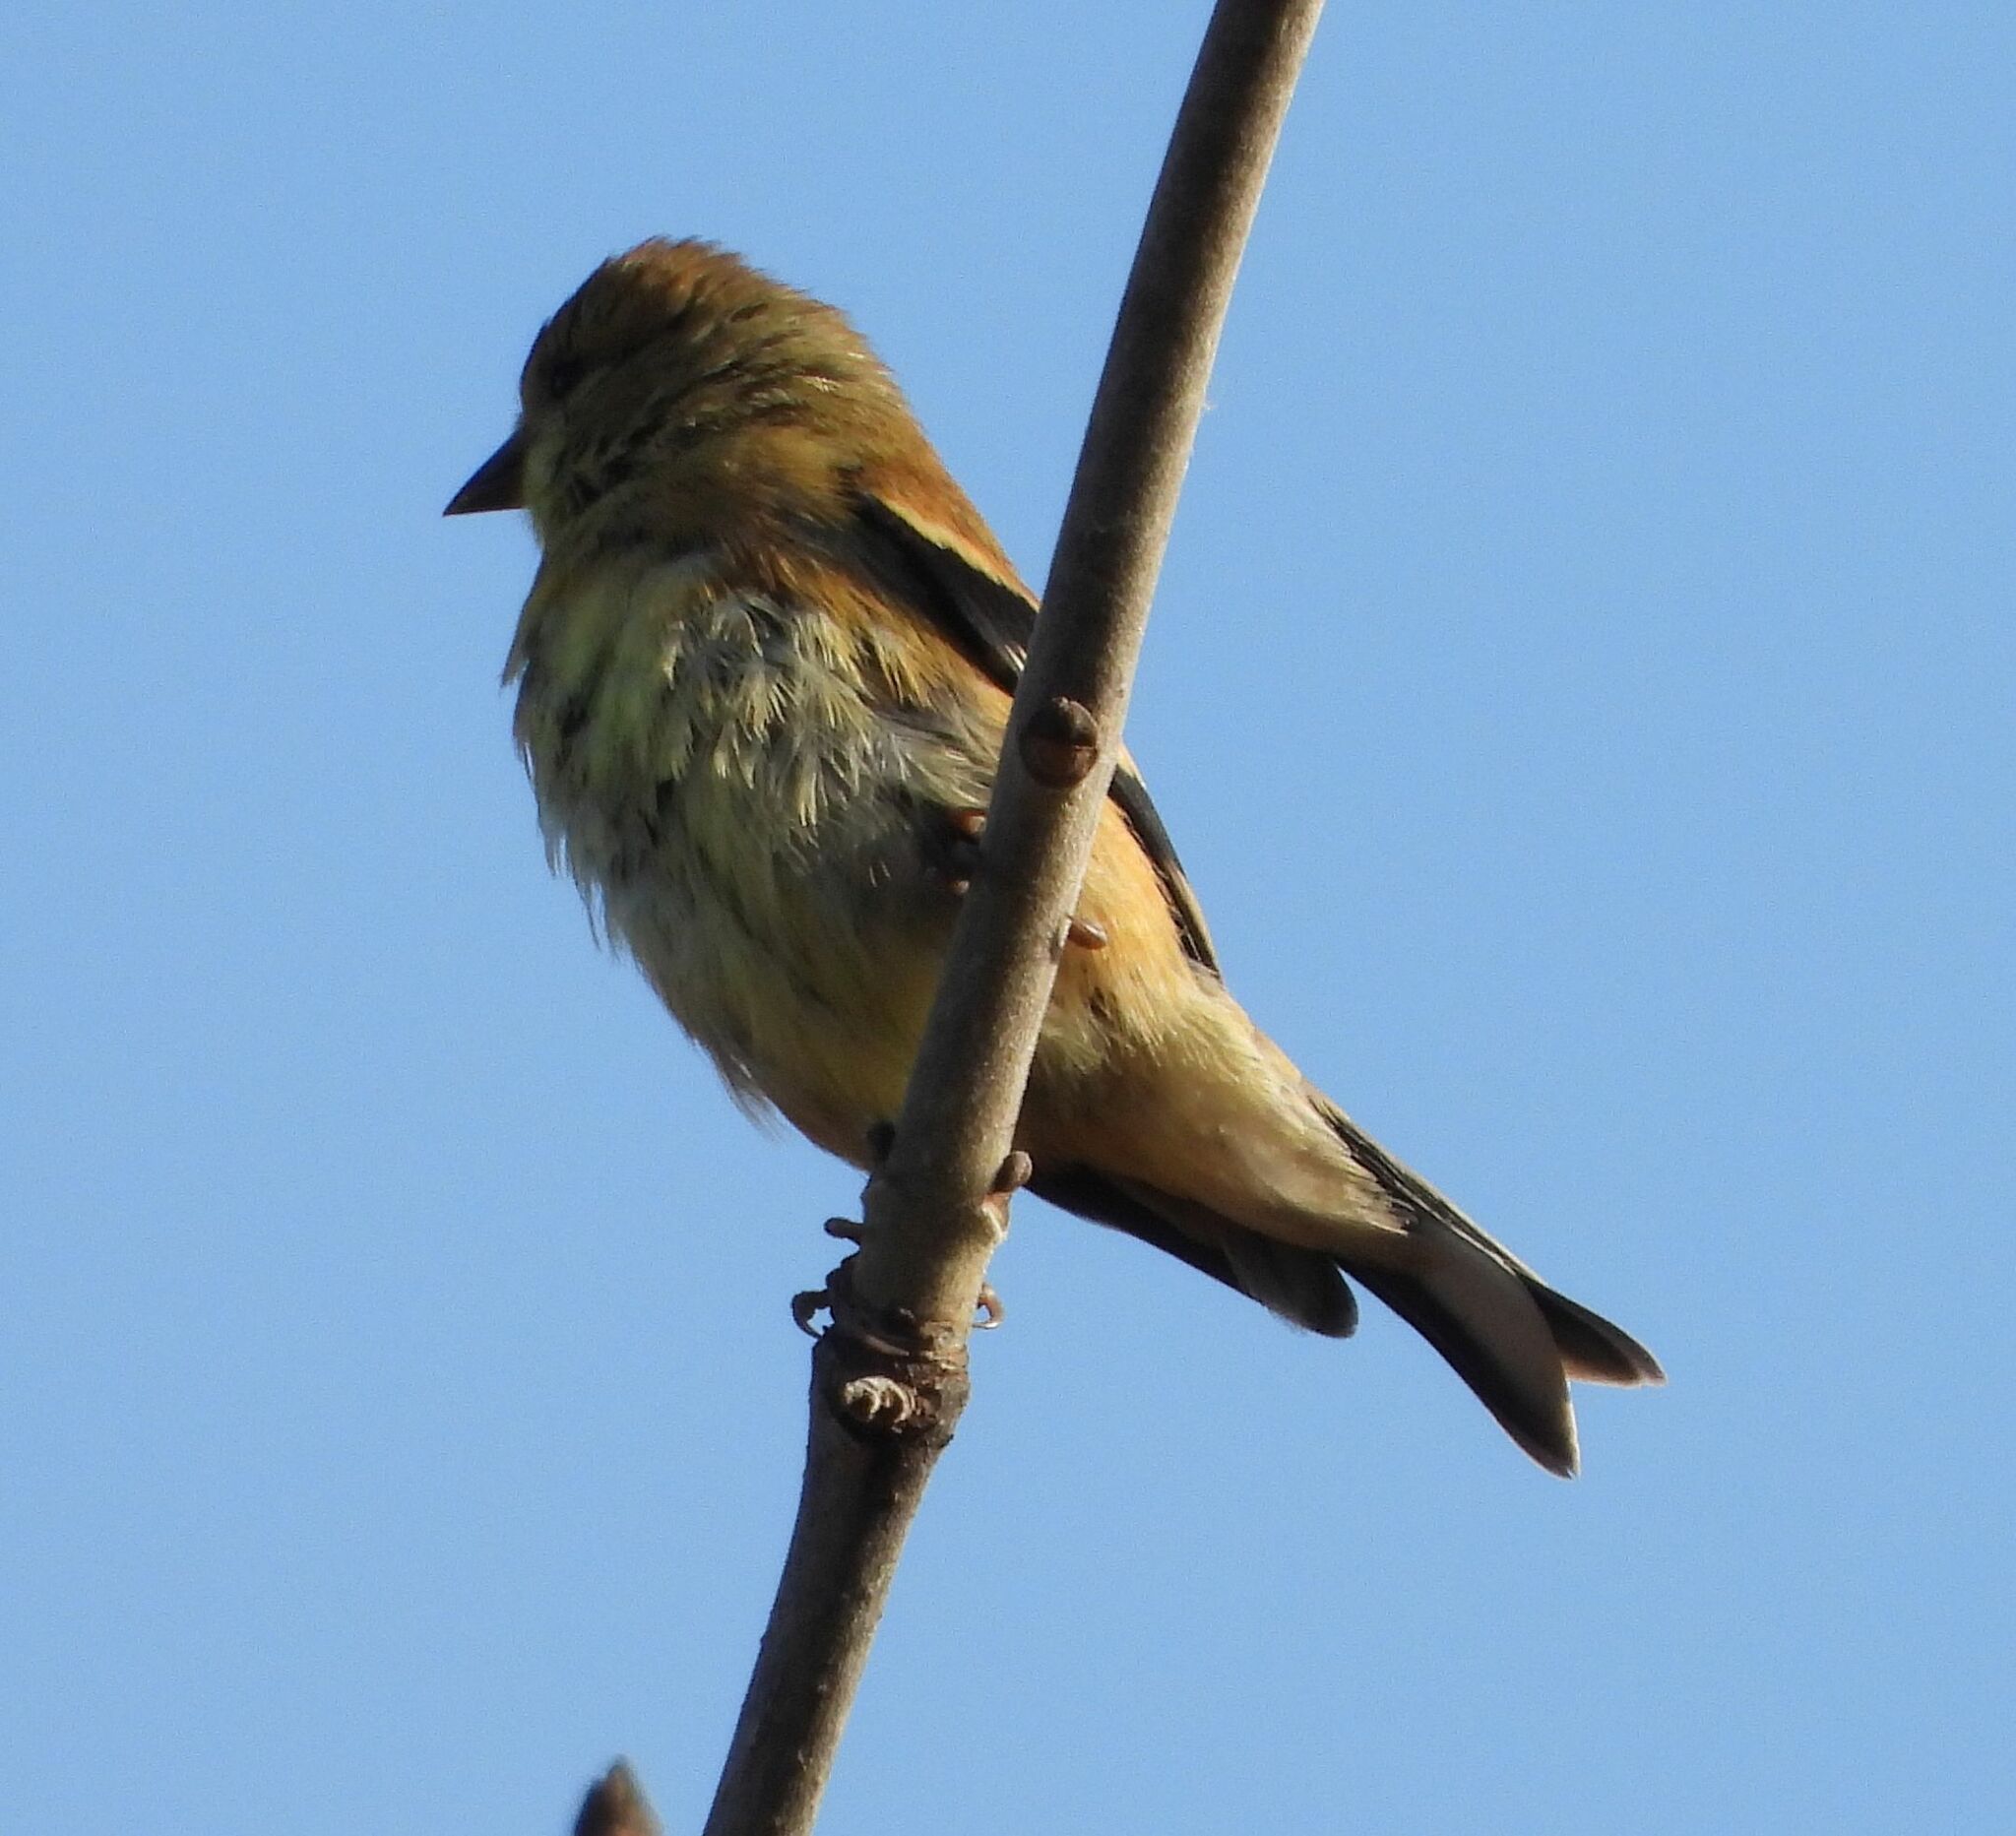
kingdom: Animalia
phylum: Chordata
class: Aves
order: Passeriformes
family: Fringillidae
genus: Spinus
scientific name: Spinus tristis
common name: American goldfinch
